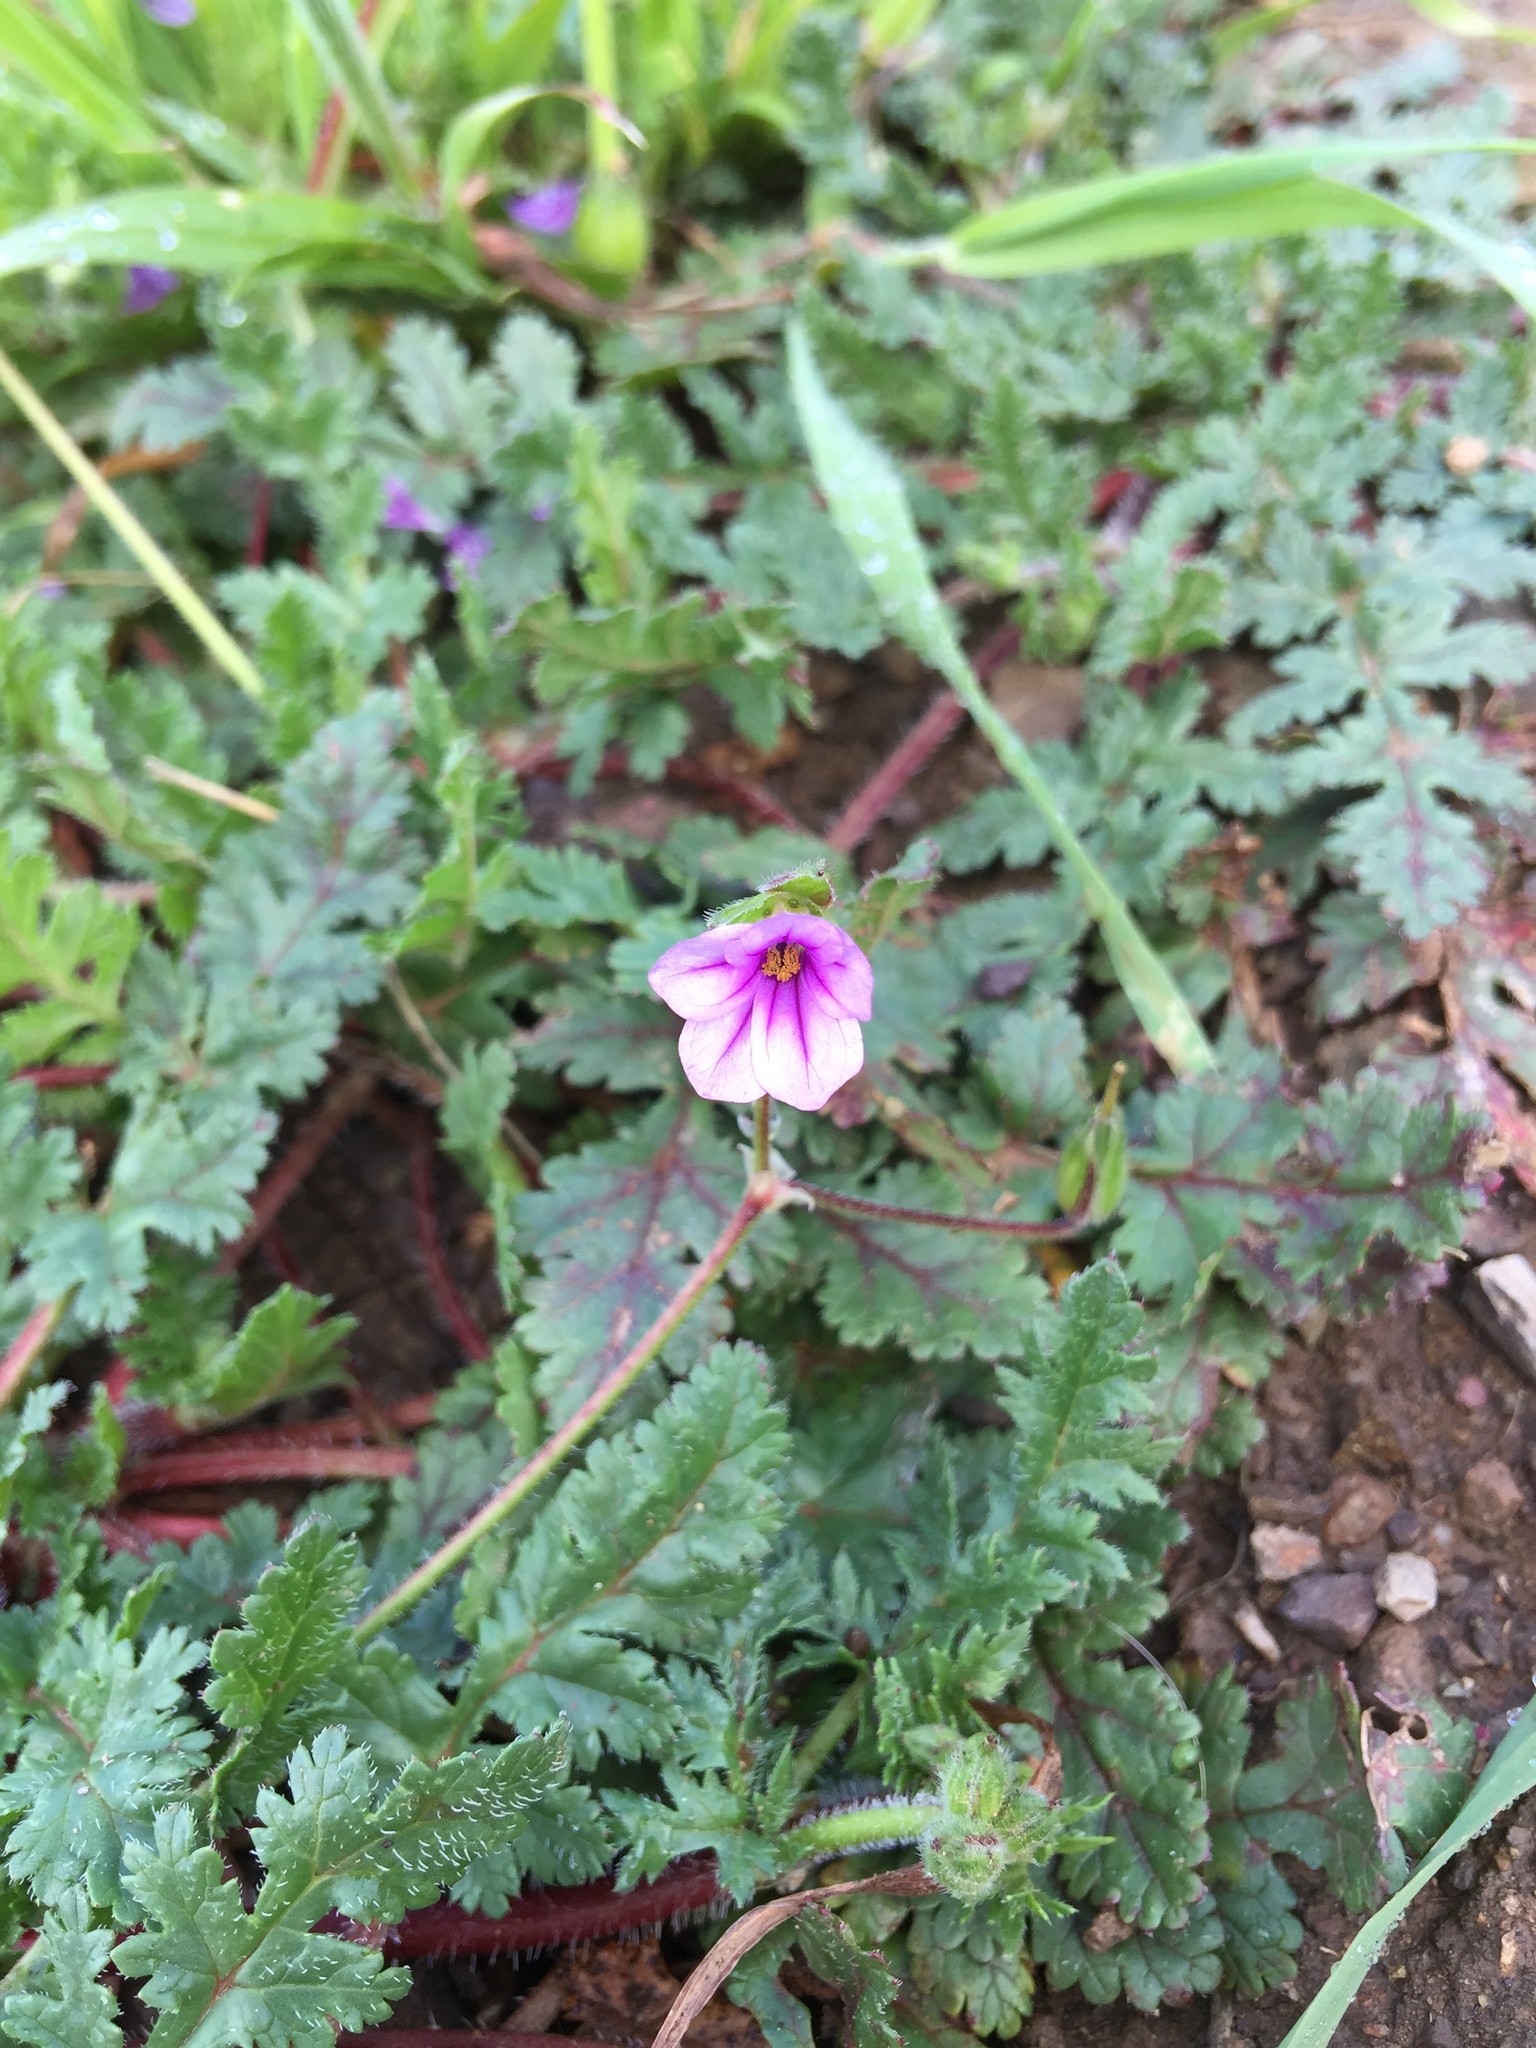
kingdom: Plantae
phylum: Tracheophyta
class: Magnoliopsida
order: Geraniales
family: Geraniaceae
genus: Erodium
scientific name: Erodium botrys
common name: Mediterranean stork's-bill
